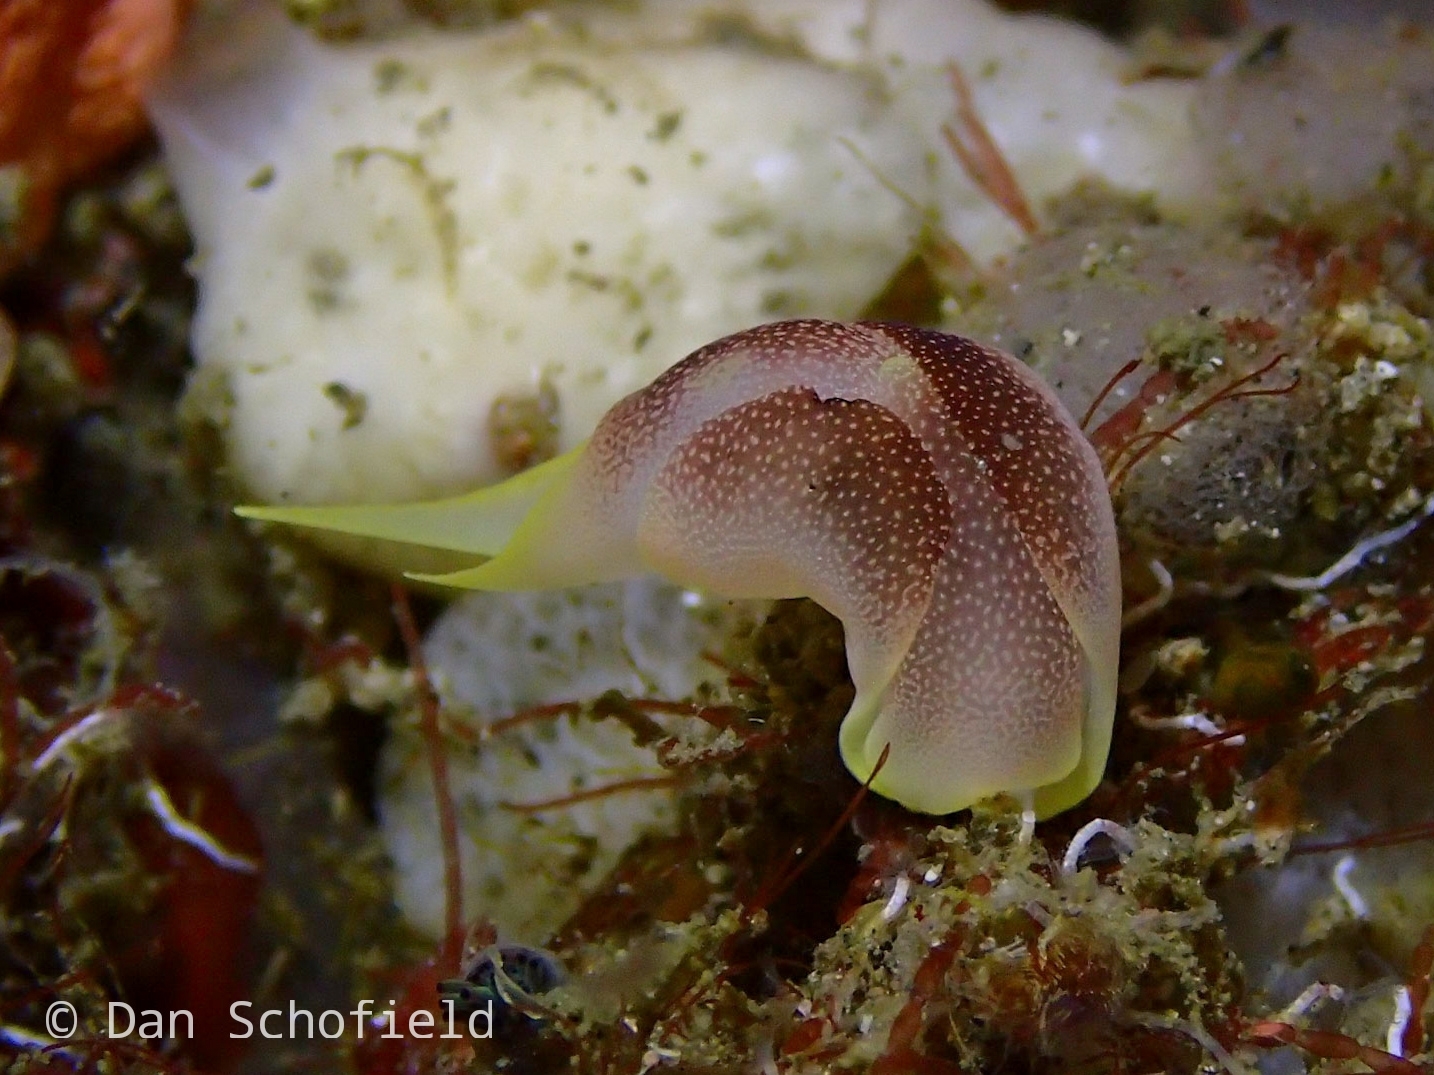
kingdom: Animalia
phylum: Mollusca
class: Gastropoda
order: Cephalaspidea
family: Aglajidae
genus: Chelidonura
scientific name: Chelidonura amoena
